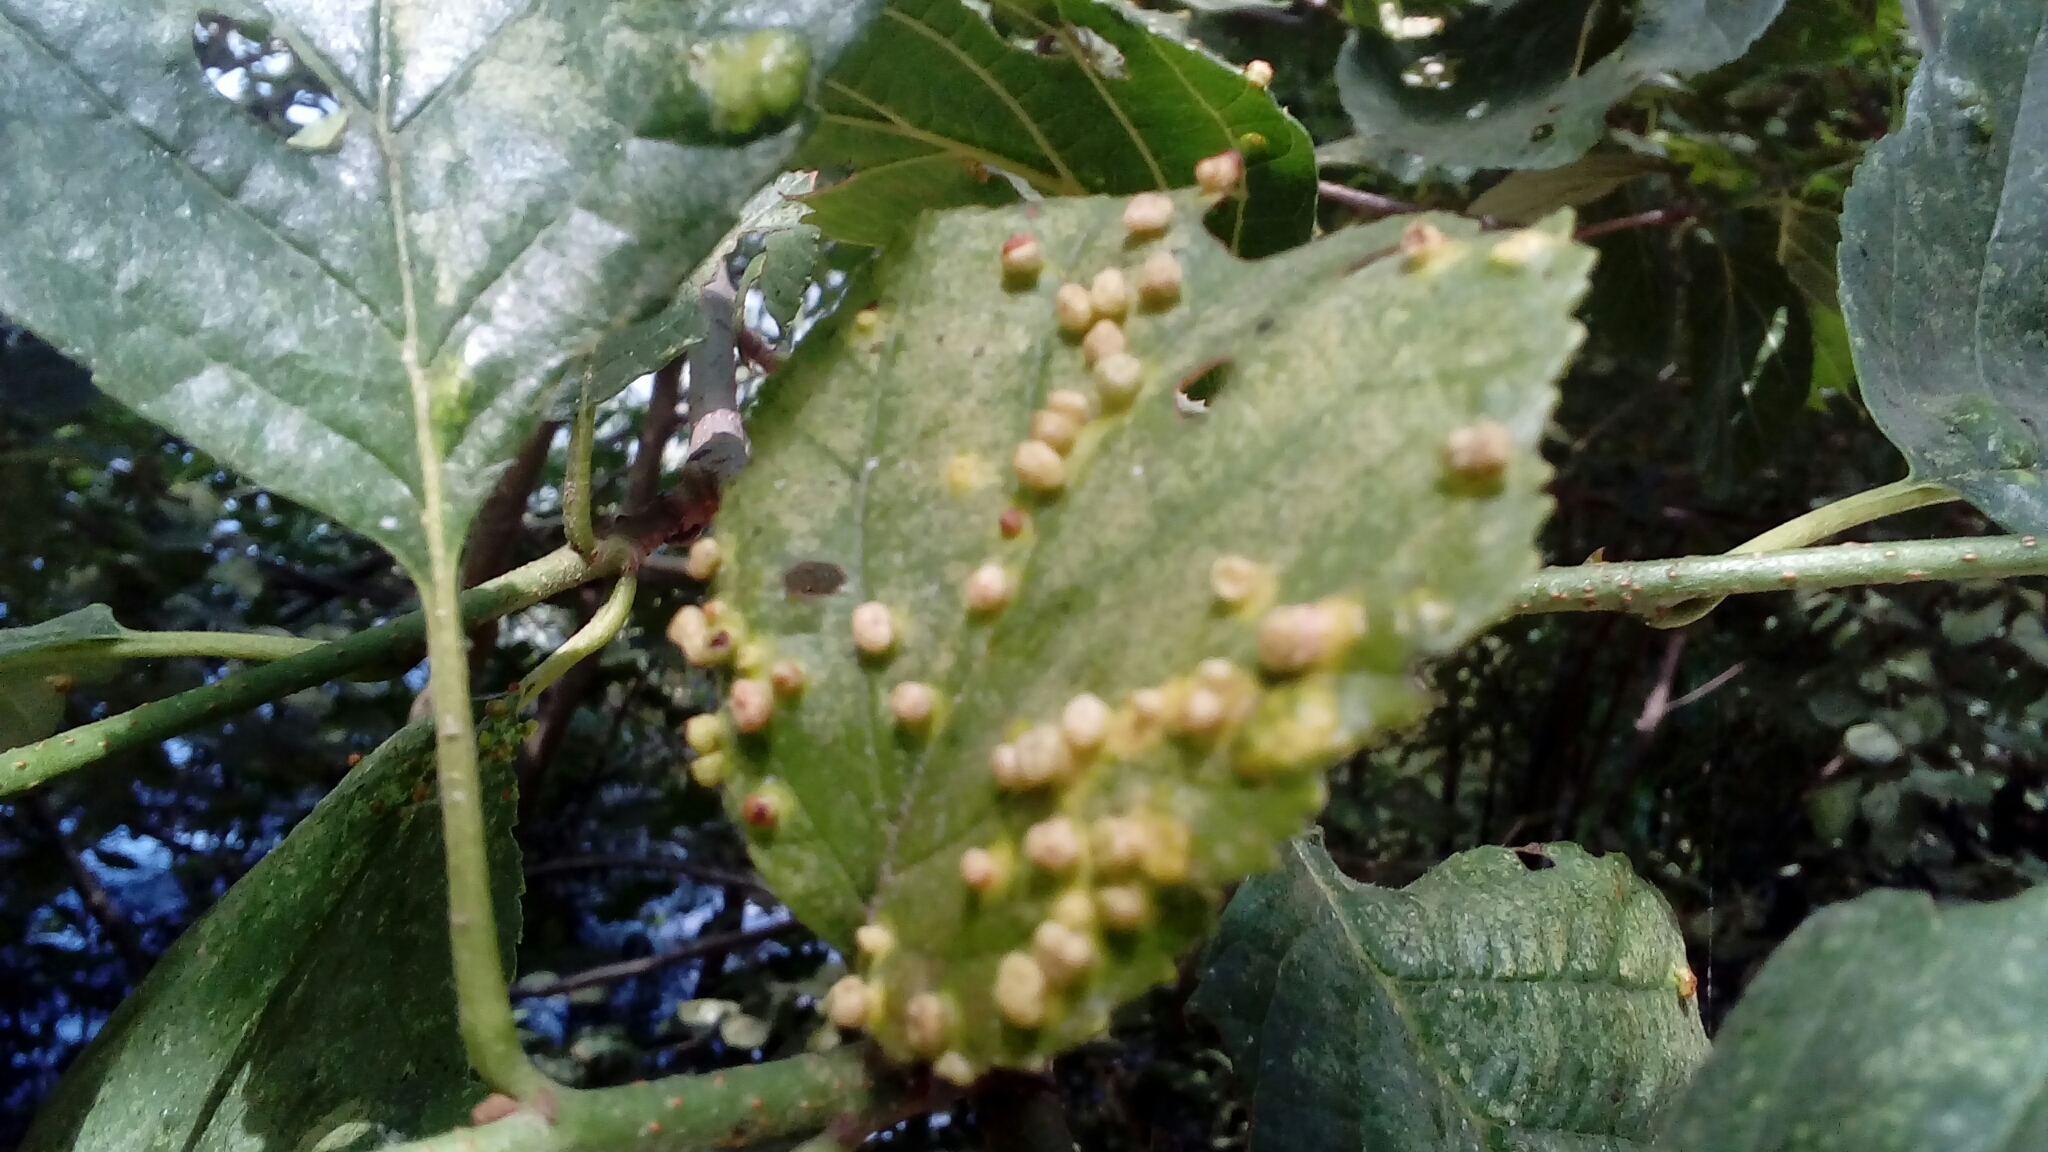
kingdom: Animalia
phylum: Arthropoda
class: Arachnida
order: Trombidiformes
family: Eriophyidae
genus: Eriophyes
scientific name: Eriophyes laevis
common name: Alder leaf gall mite
